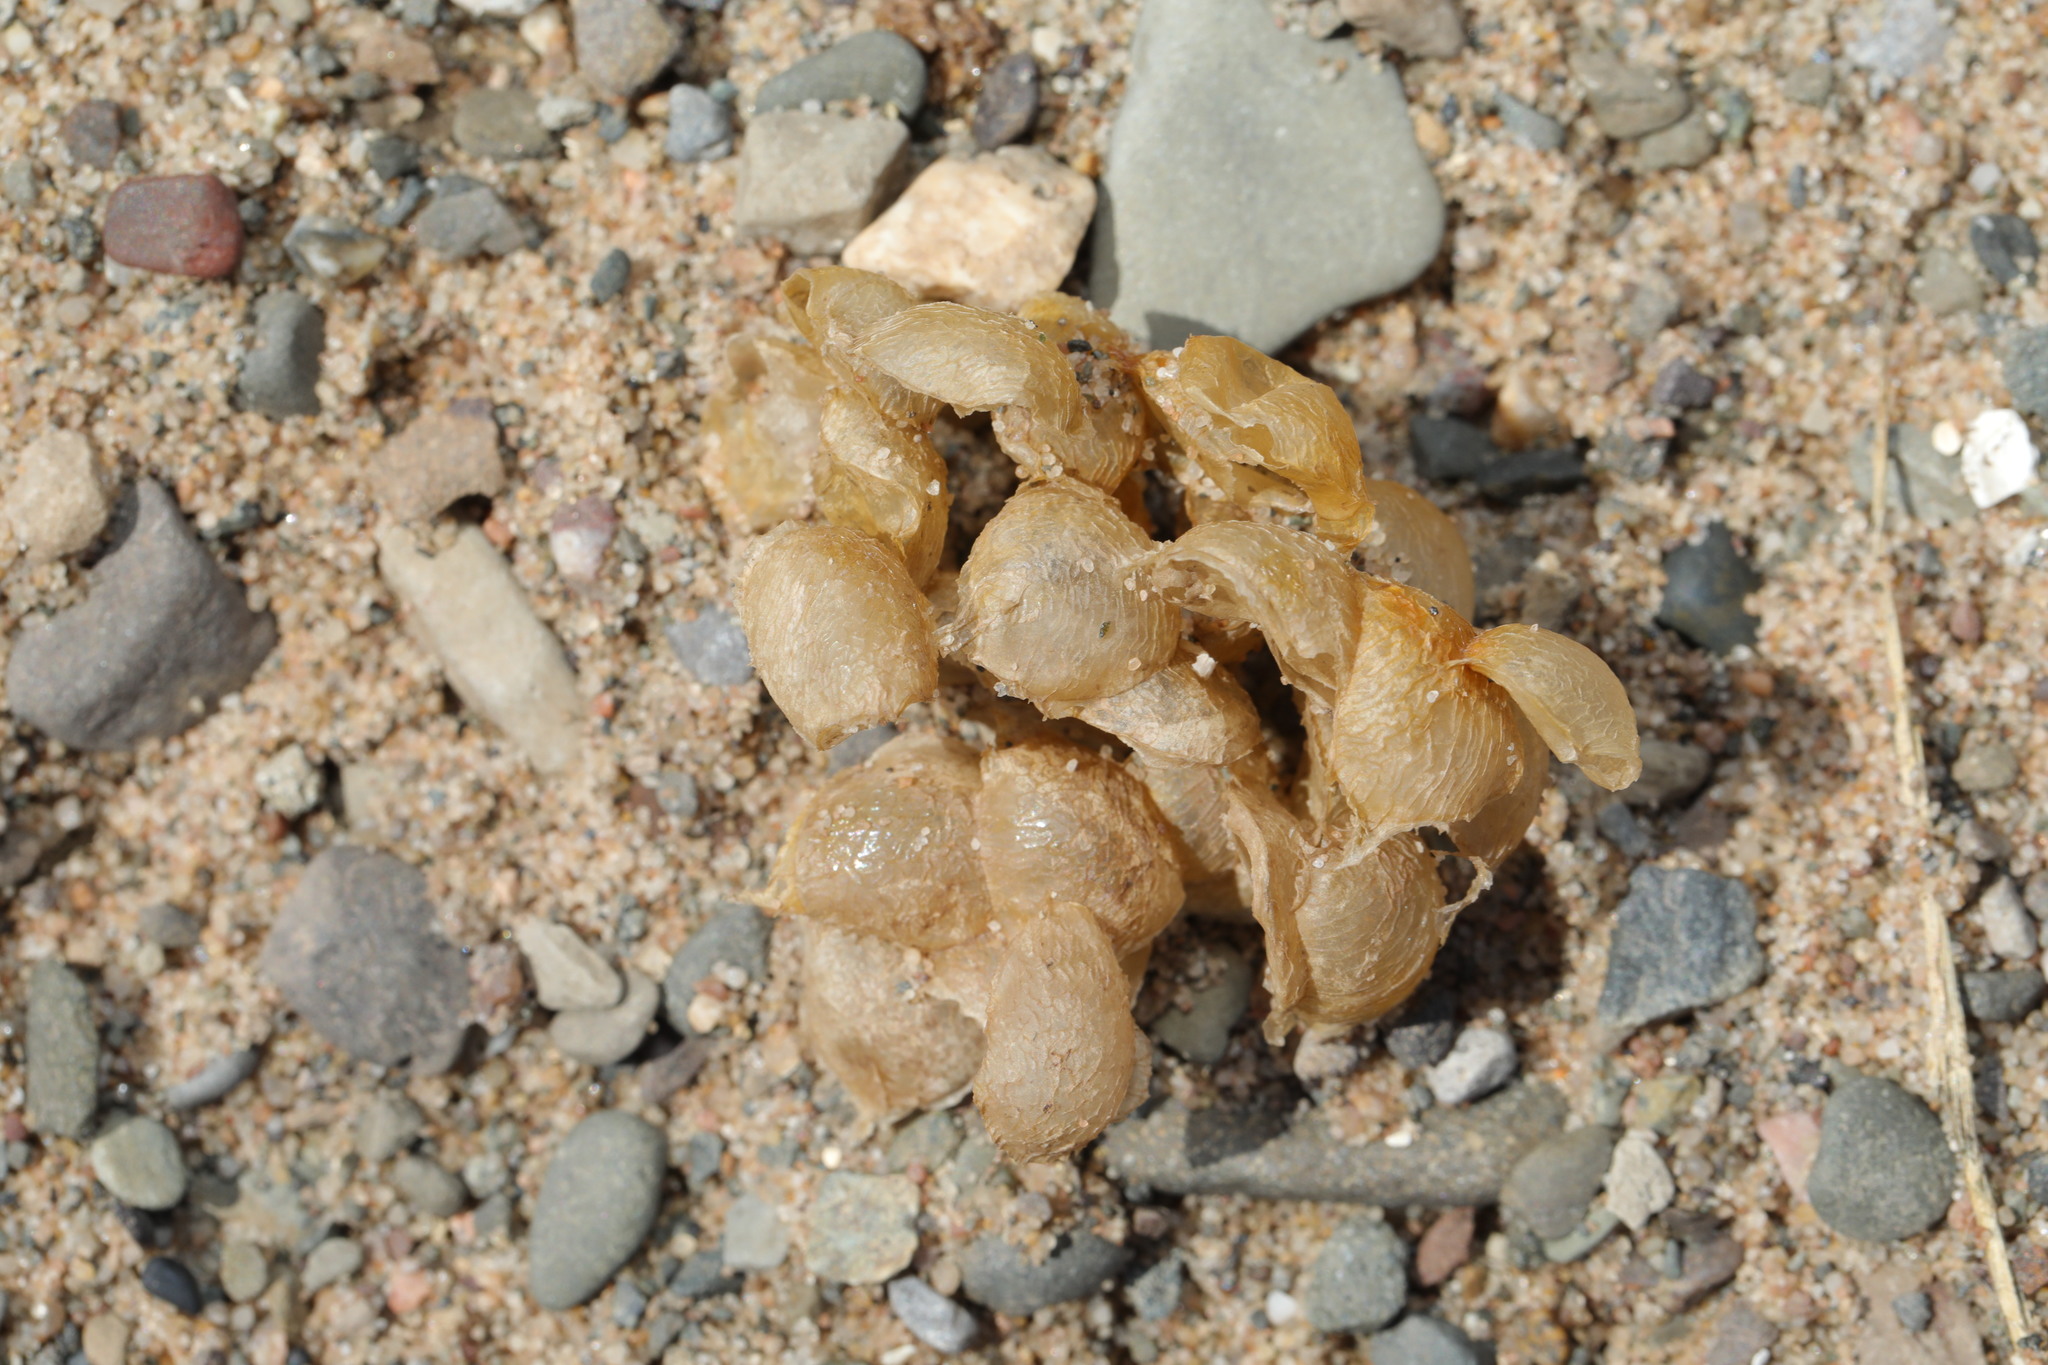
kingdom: Animalia
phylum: Mollusca
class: Gastropoda
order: Neogastropoda
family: Buccinidae
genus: Buccinum
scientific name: Buccinum undatum
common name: Common whelk
